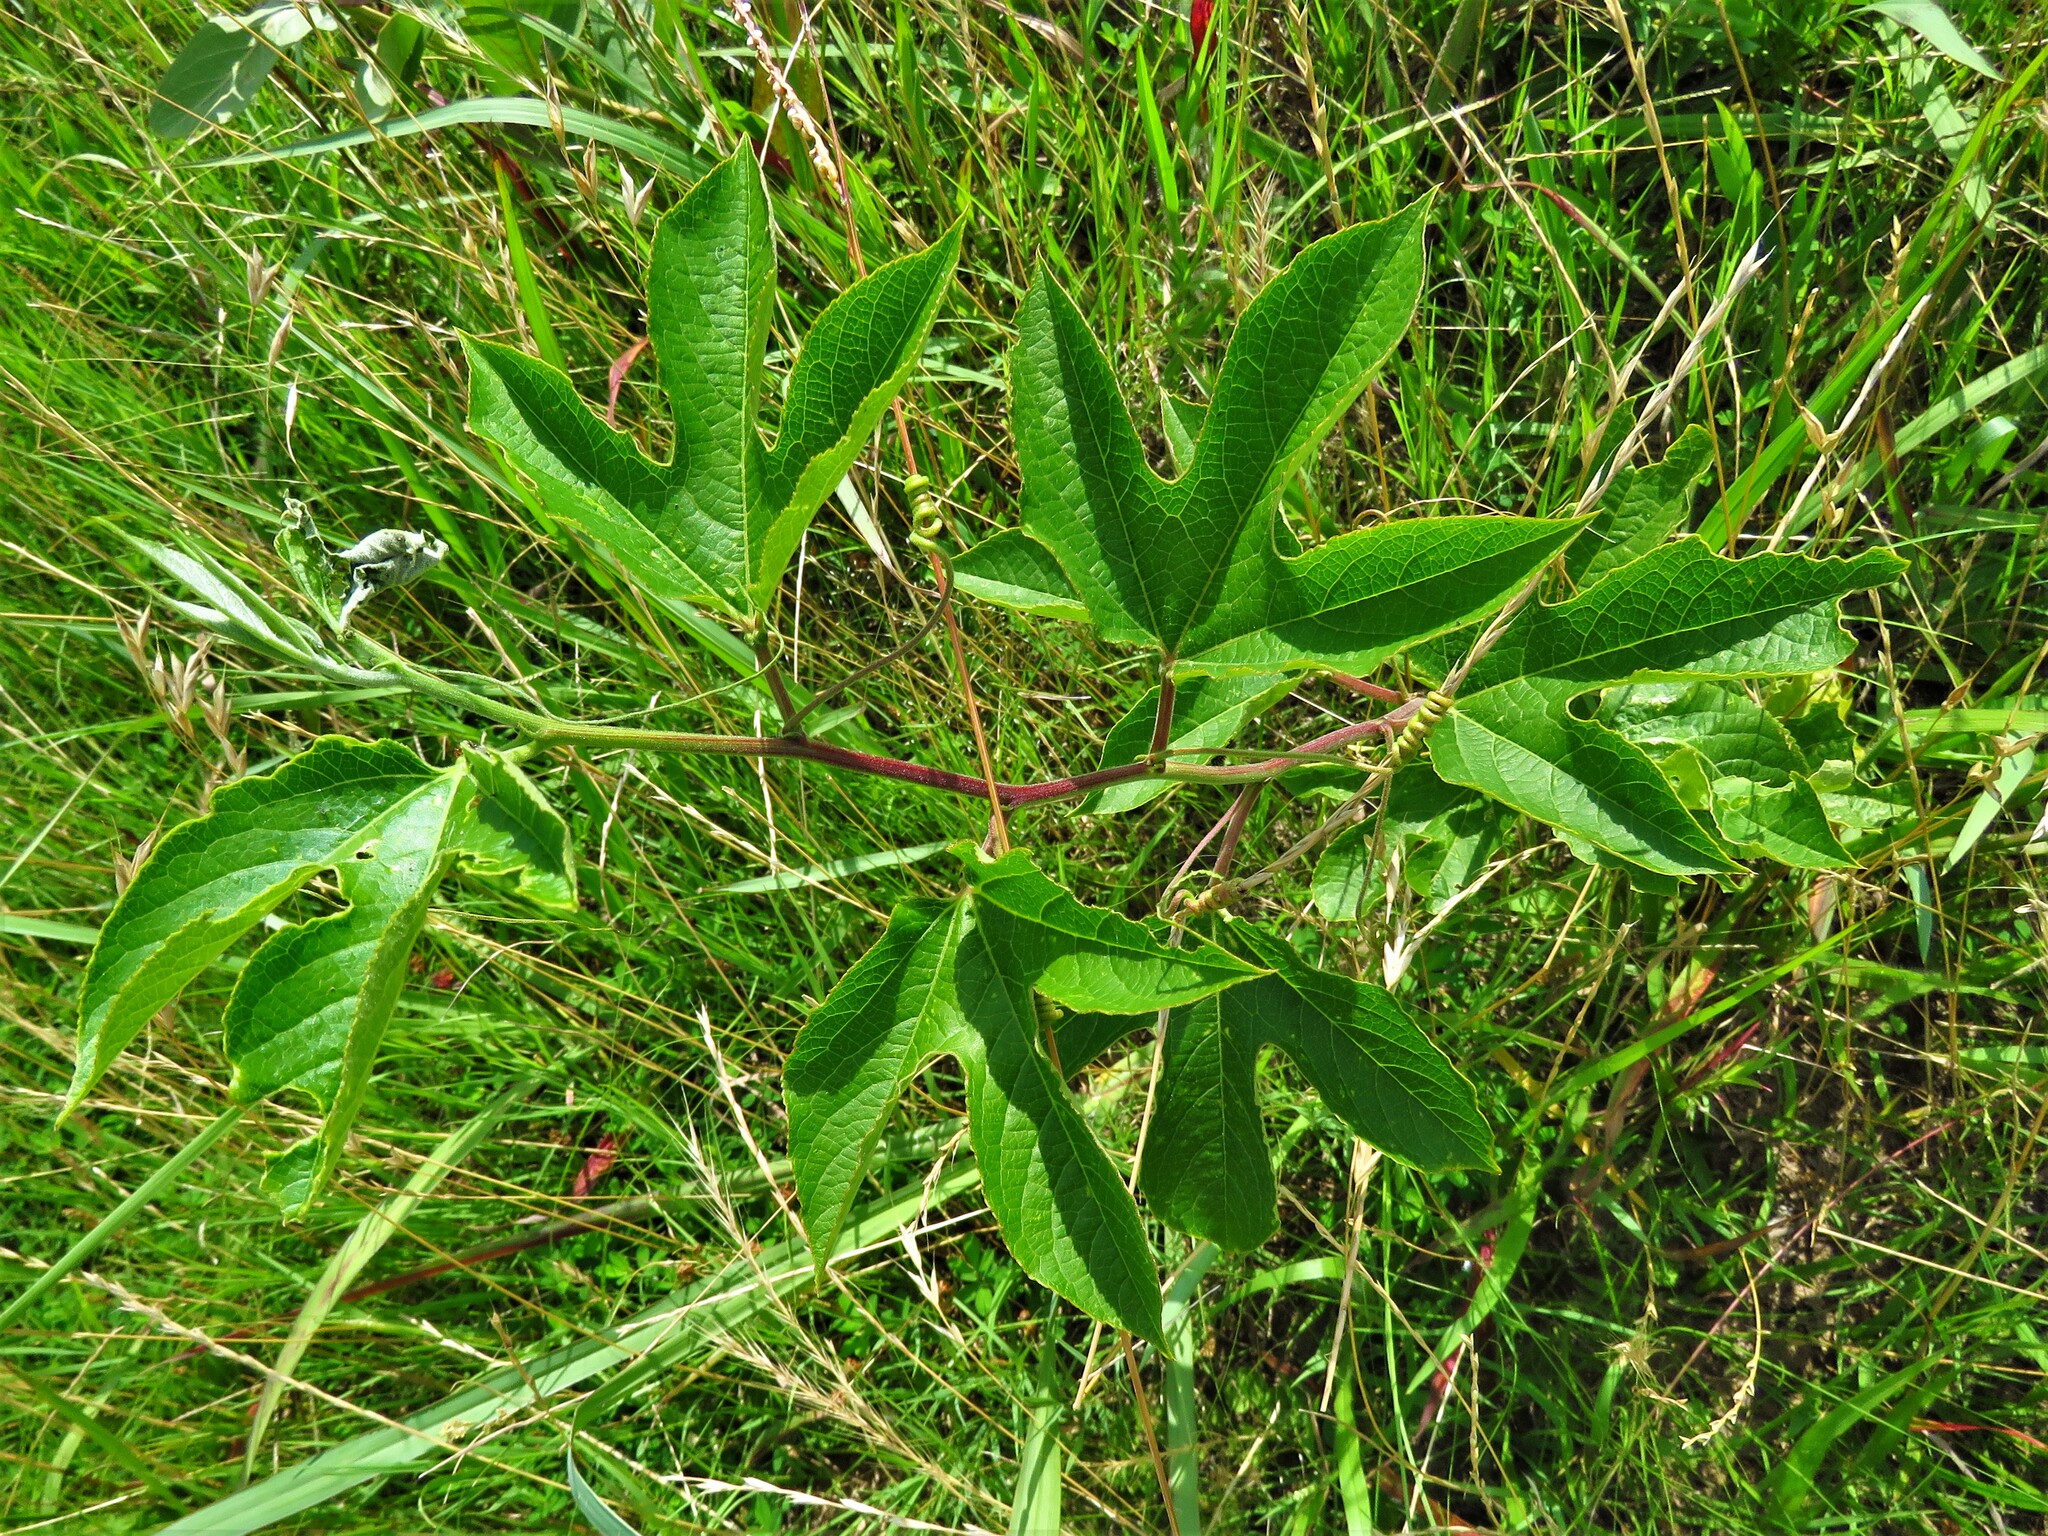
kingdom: Plantae
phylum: Tracheophyta
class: Magnoliopsida
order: Malpighiales
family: Passifloraceae
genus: Passiflora
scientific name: Passiflora incarnata
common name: Apricot-vine
